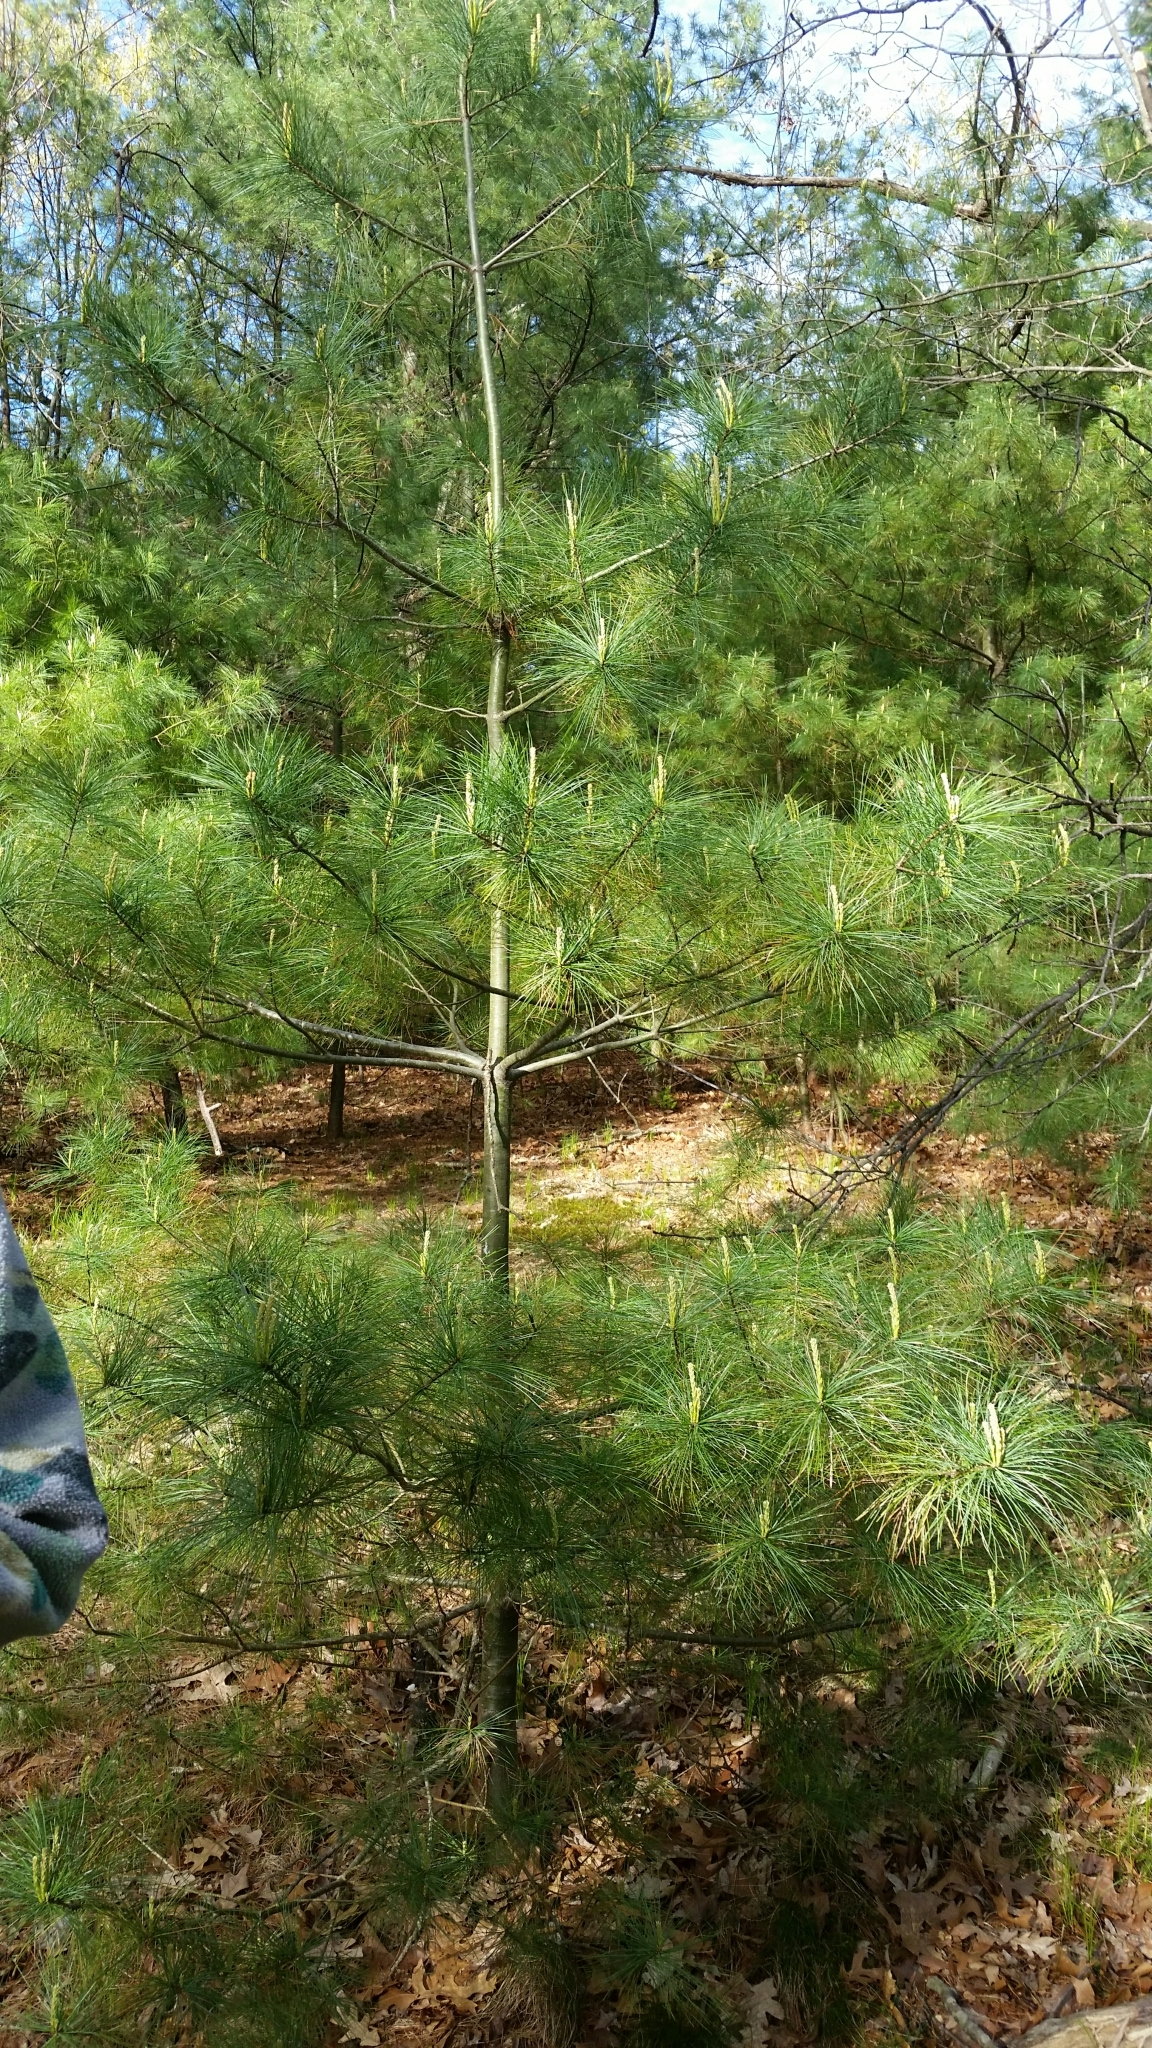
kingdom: Plantae
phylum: Tracheophyta
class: Pinopsida
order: Pinales
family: Pinaceae
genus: Pinus
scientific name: Pinus strobus
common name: Weymouth pine
